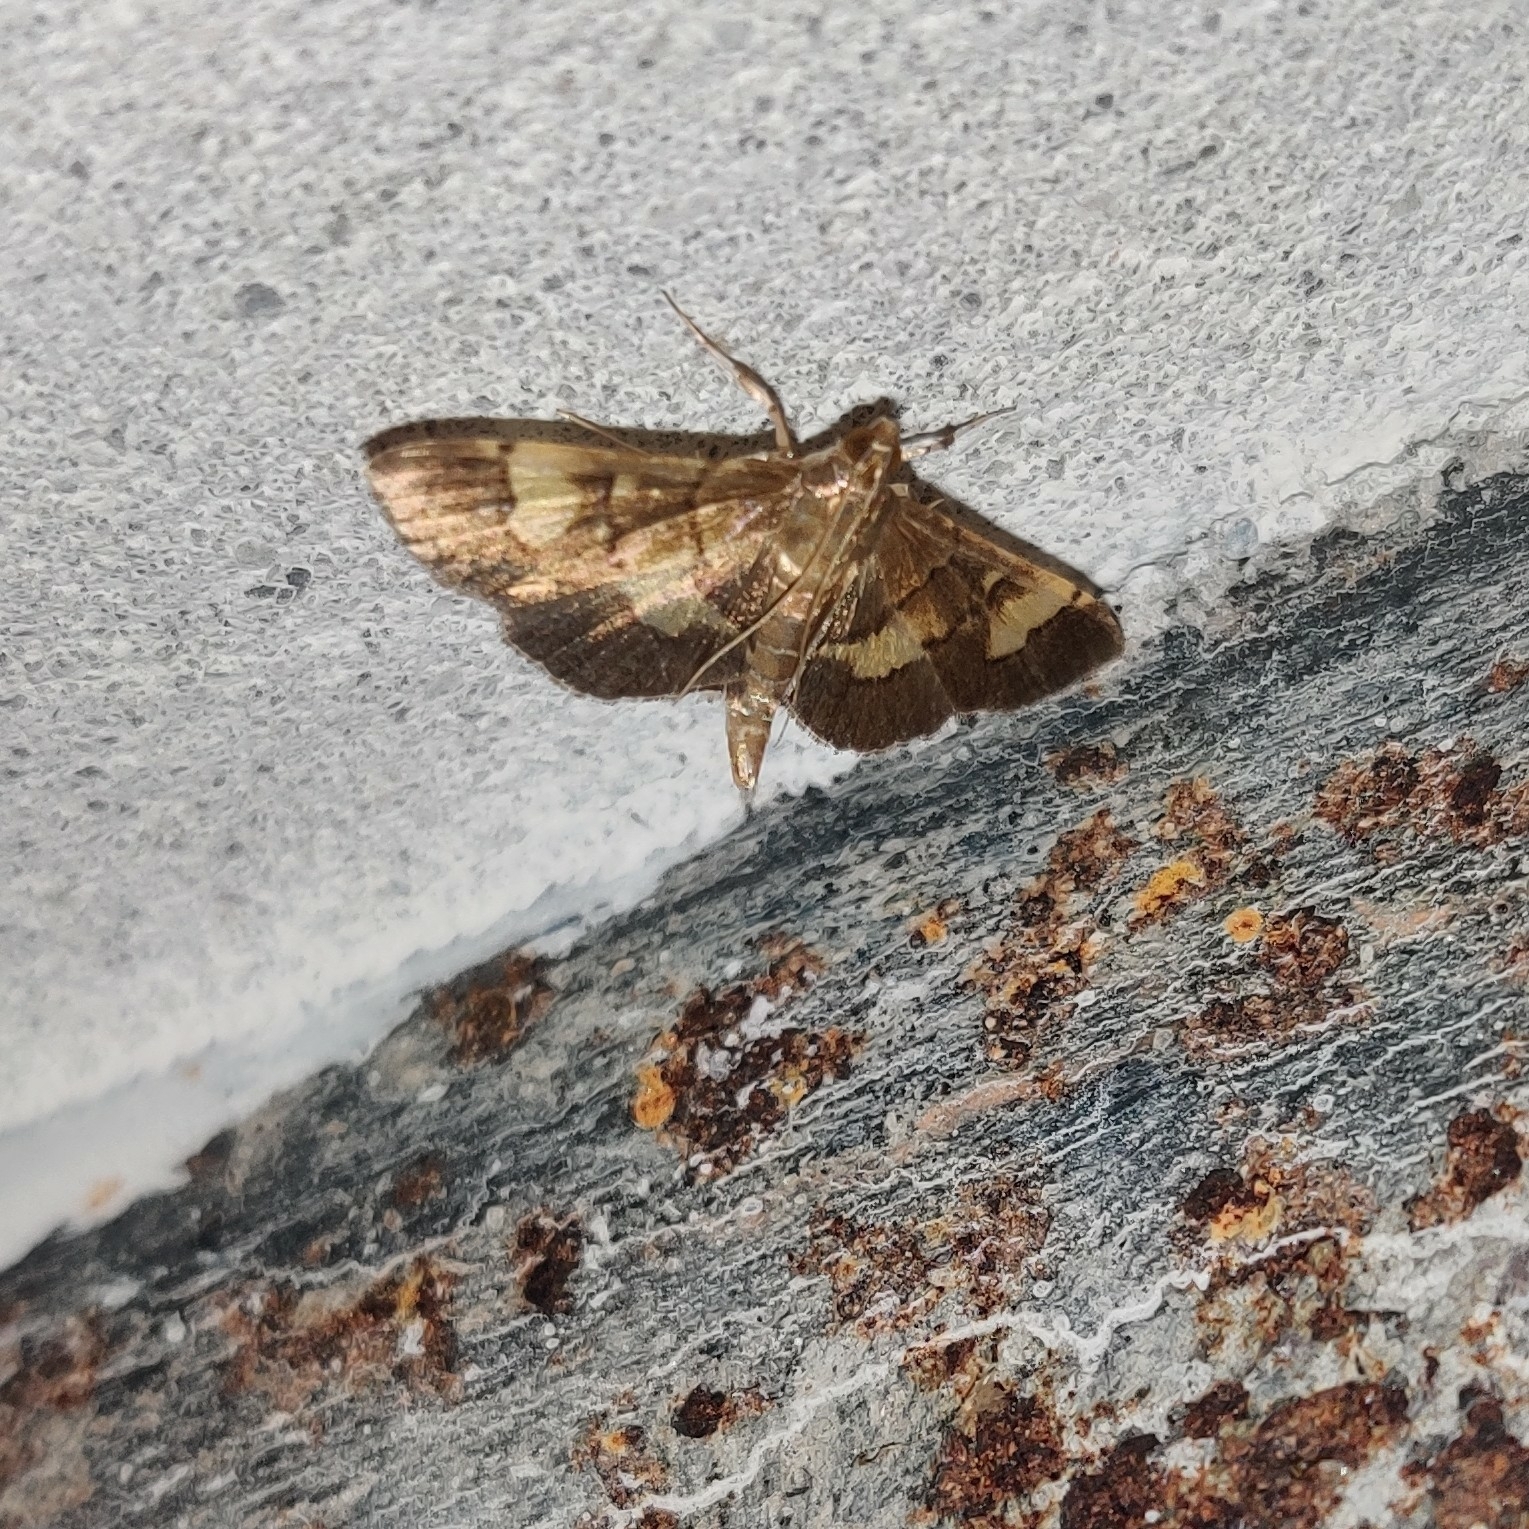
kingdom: Animalia
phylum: Arthropoda
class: Insecta
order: Lepidoptera
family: Crambidae
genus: Syngamia
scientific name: Syngamia falsidicalis
